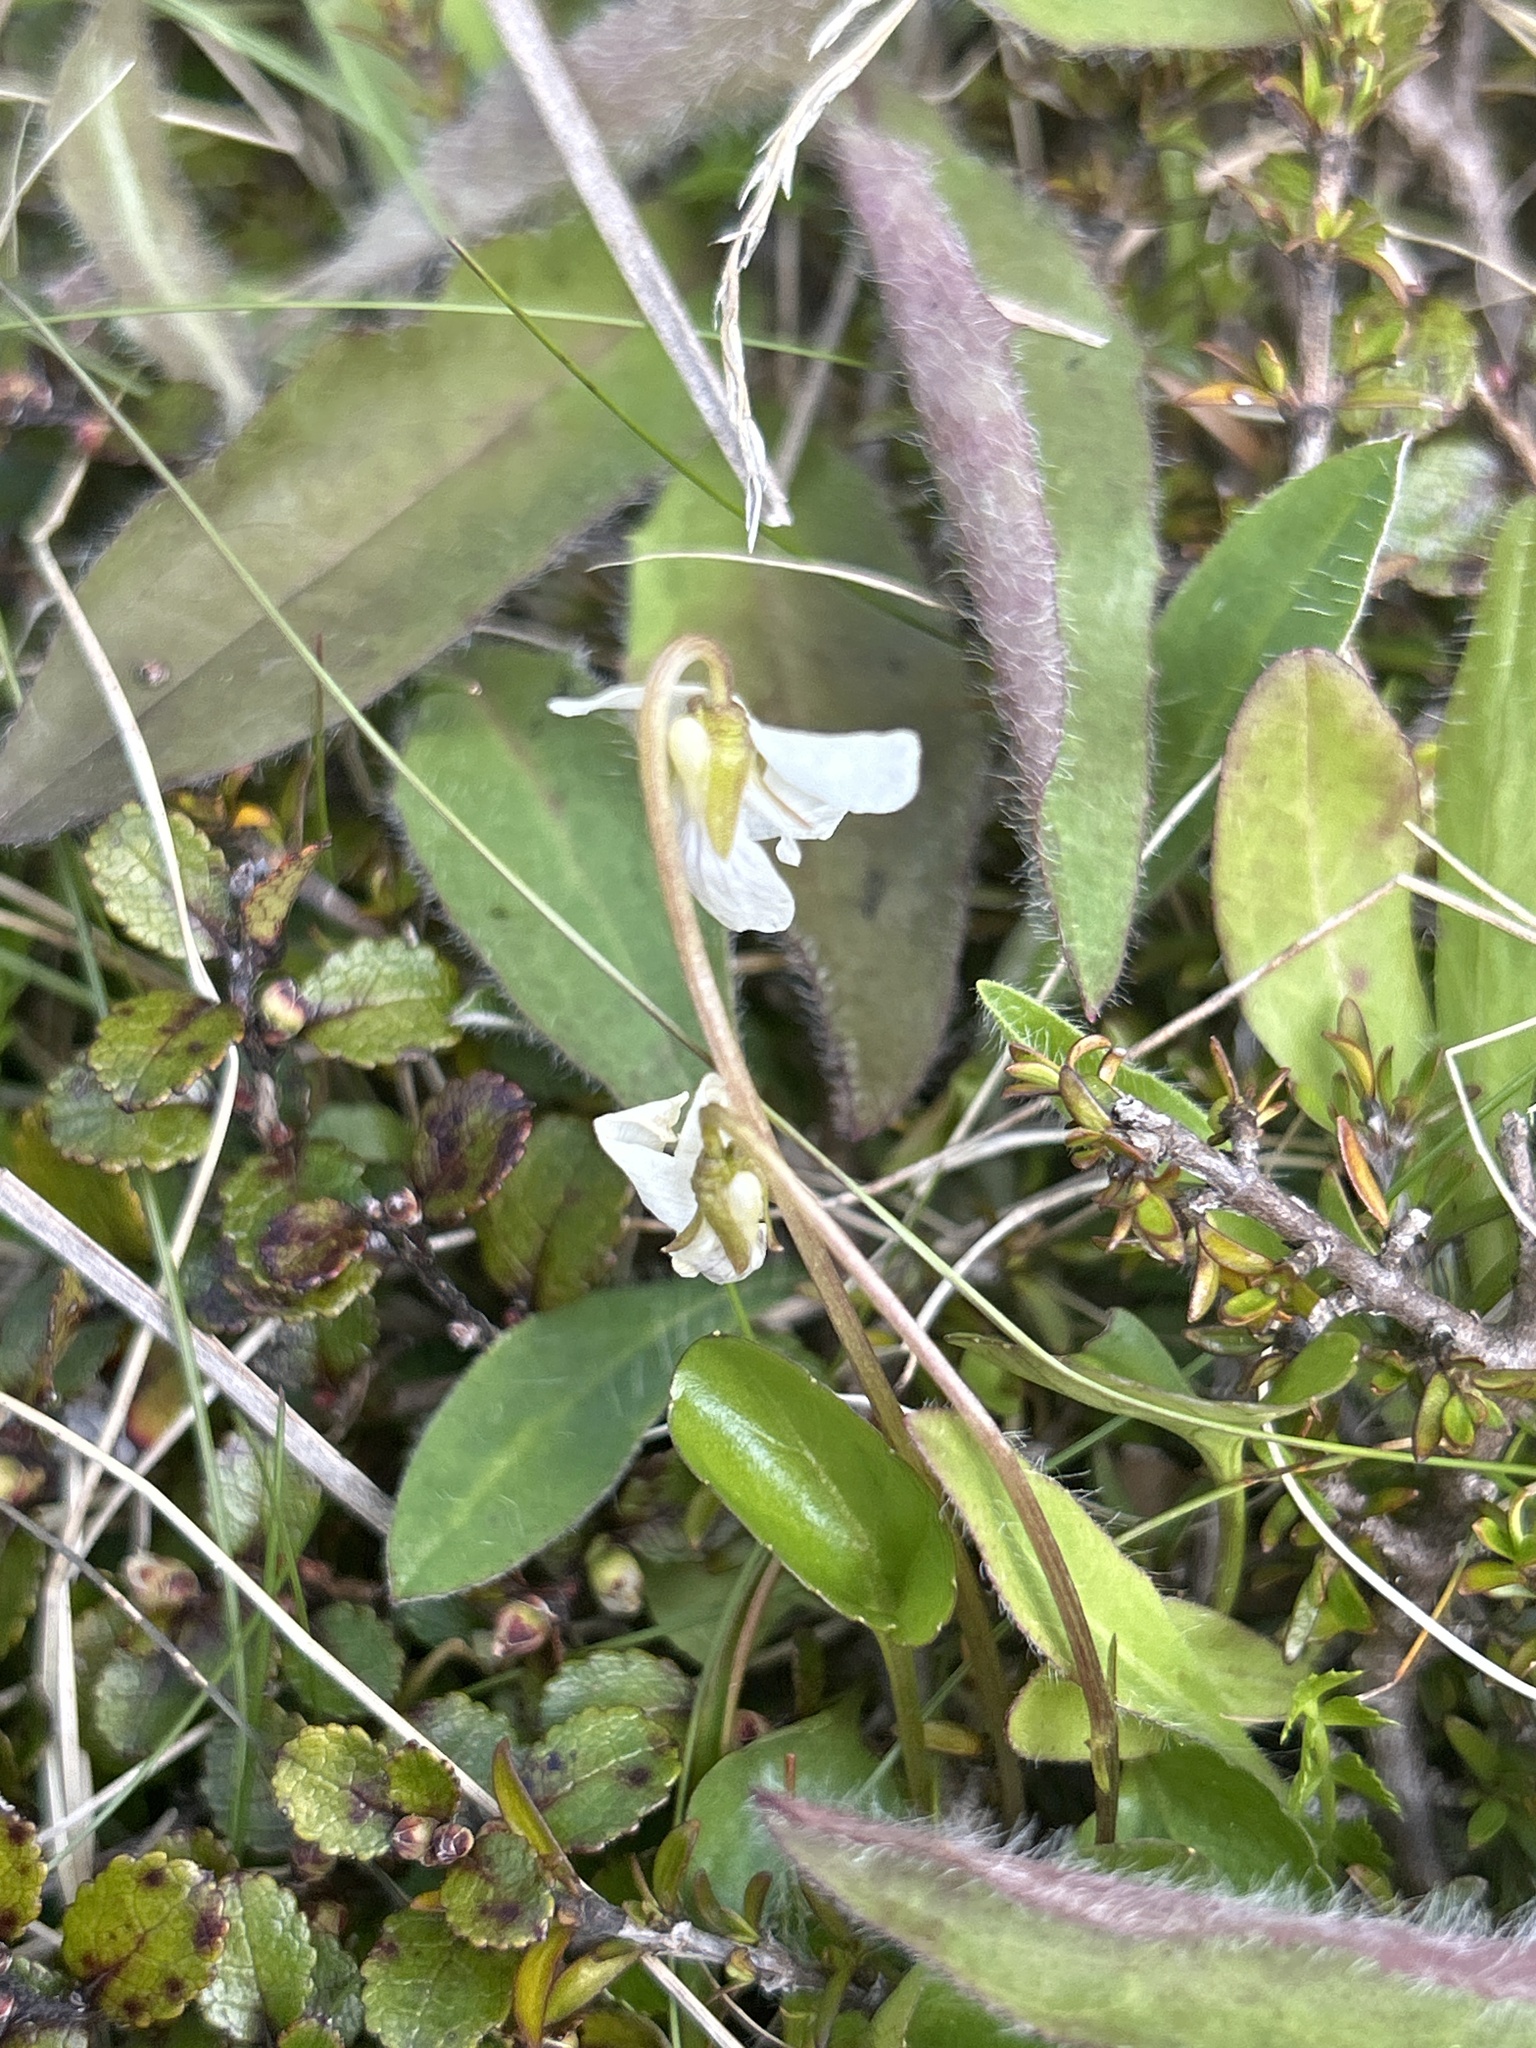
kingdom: Plantae
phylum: Tracheophyta
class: Magnoliopsida
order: Malpighiales
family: Violaceae
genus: Viola
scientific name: Viola cunninghamii
